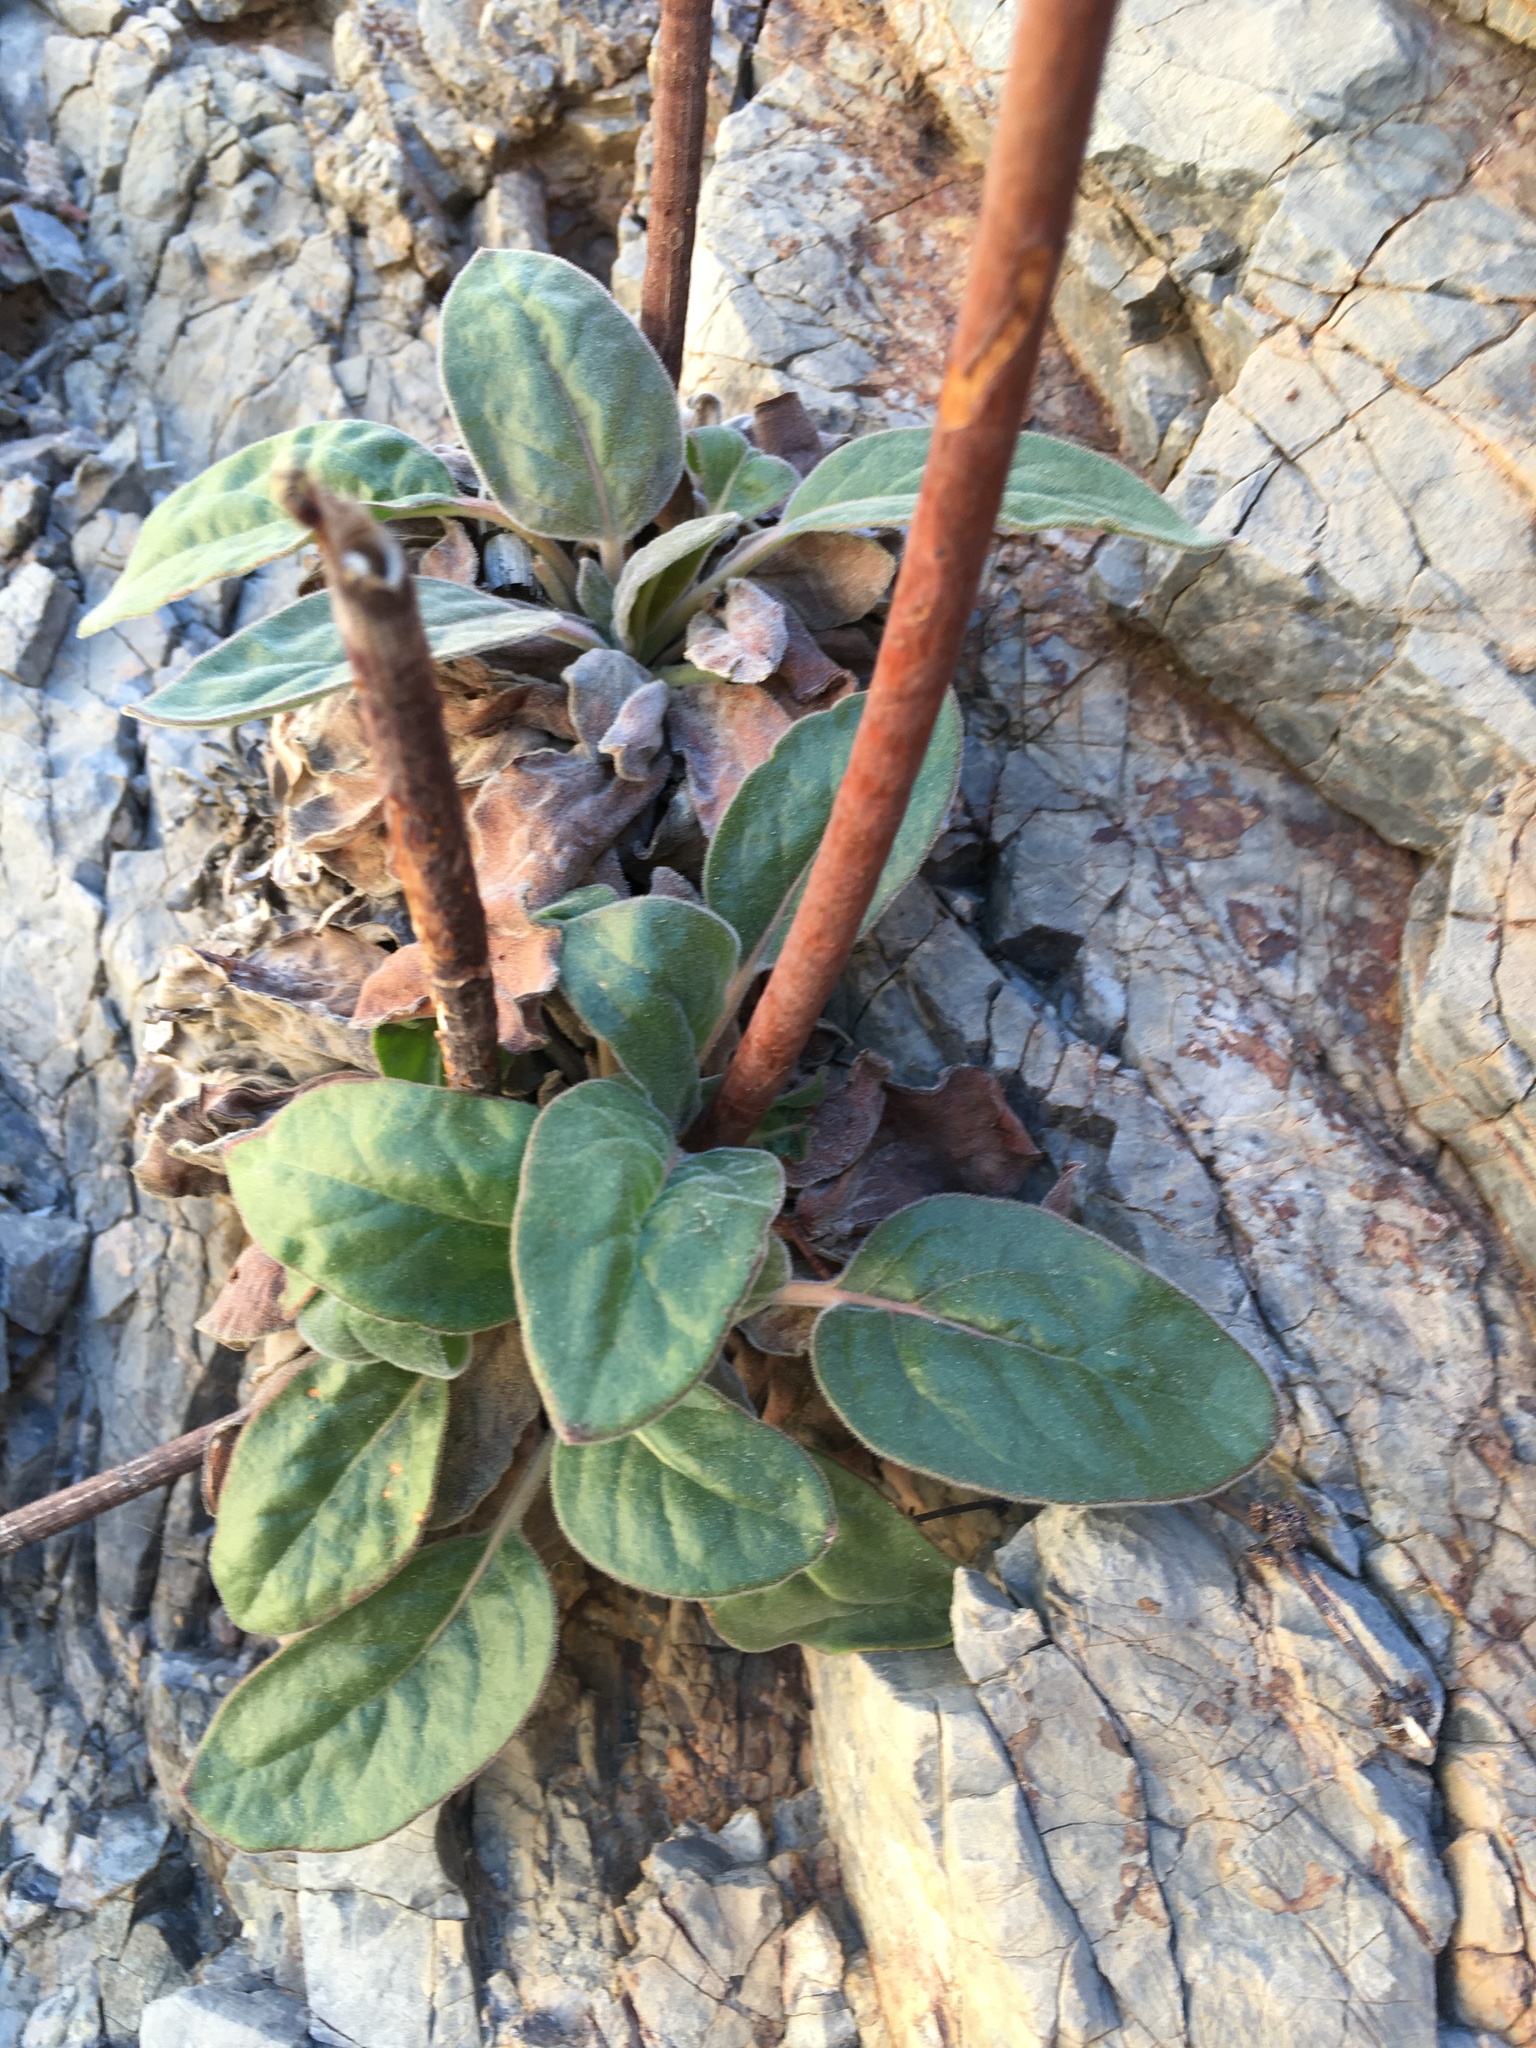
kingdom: Plantae
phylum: Tracheophyta
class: Magnoliopsida
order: Caryophyllales
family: Polygonaceae
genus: Eriogonum
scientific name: Eriogonum intrafractum
